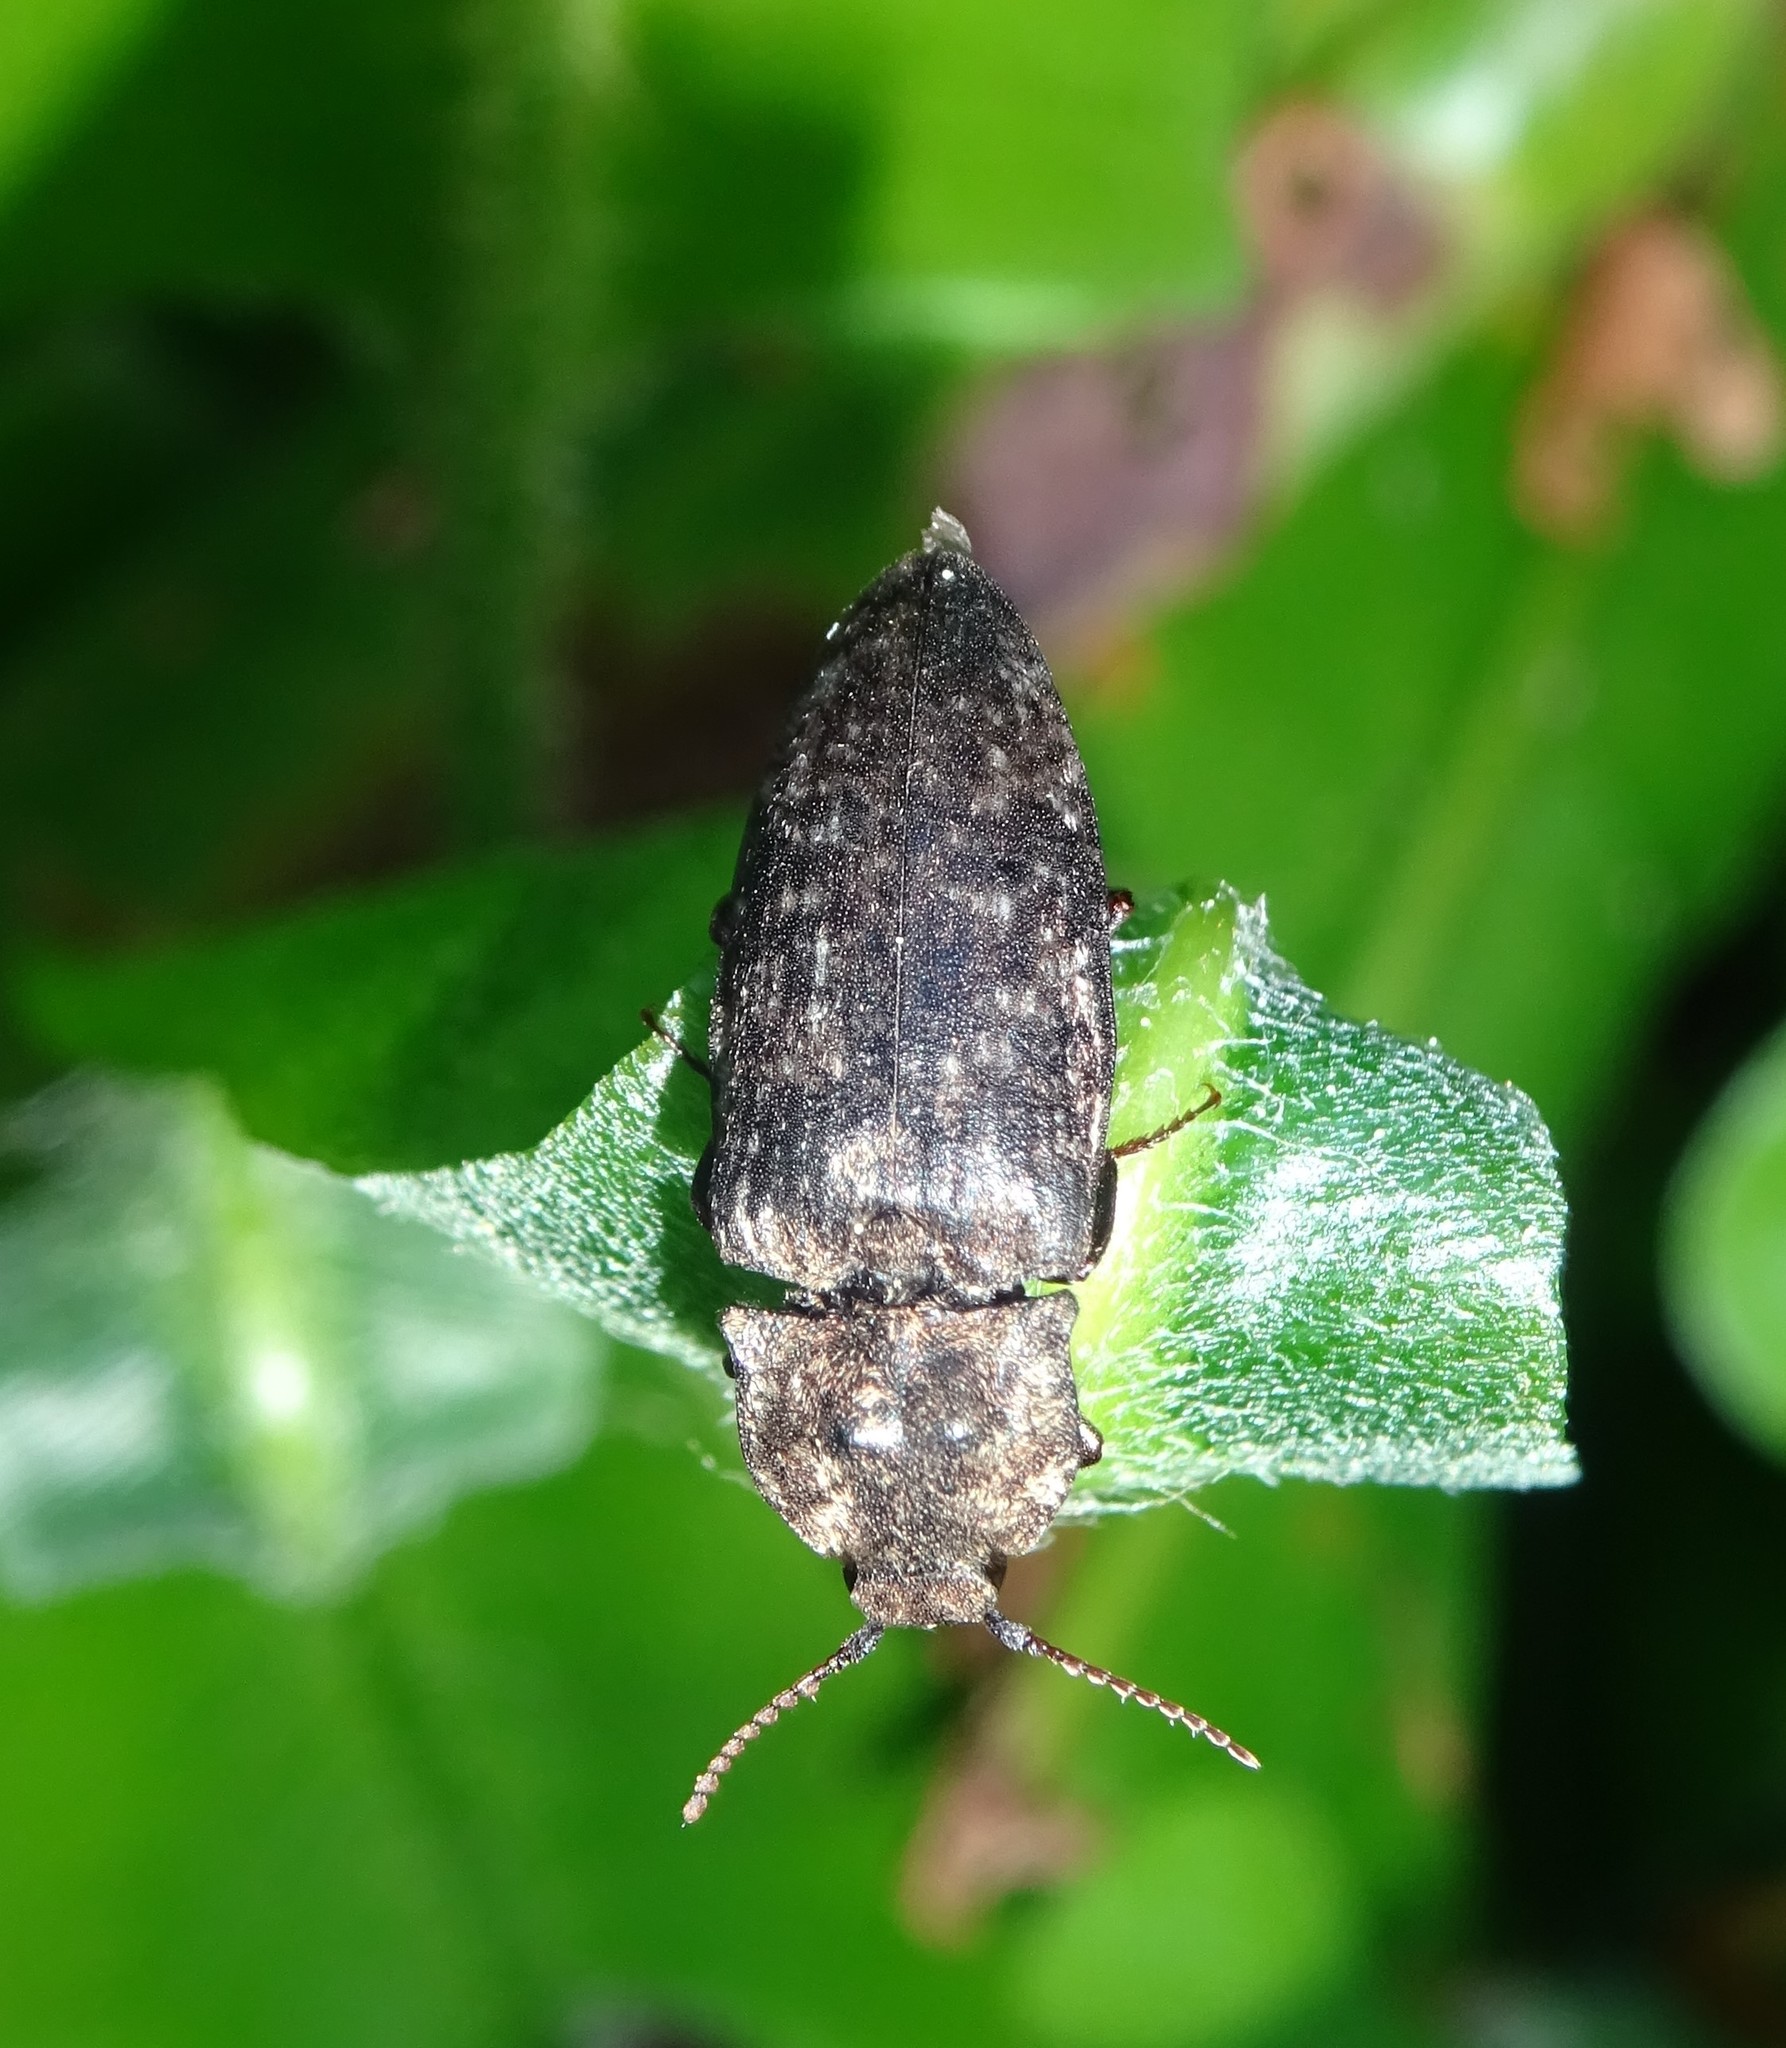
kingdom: Animalia
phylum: Arthropoda
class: Insecta
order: Coleoptera
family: Elateridae
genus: Agrypnus
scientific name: Agrypnus murinus
